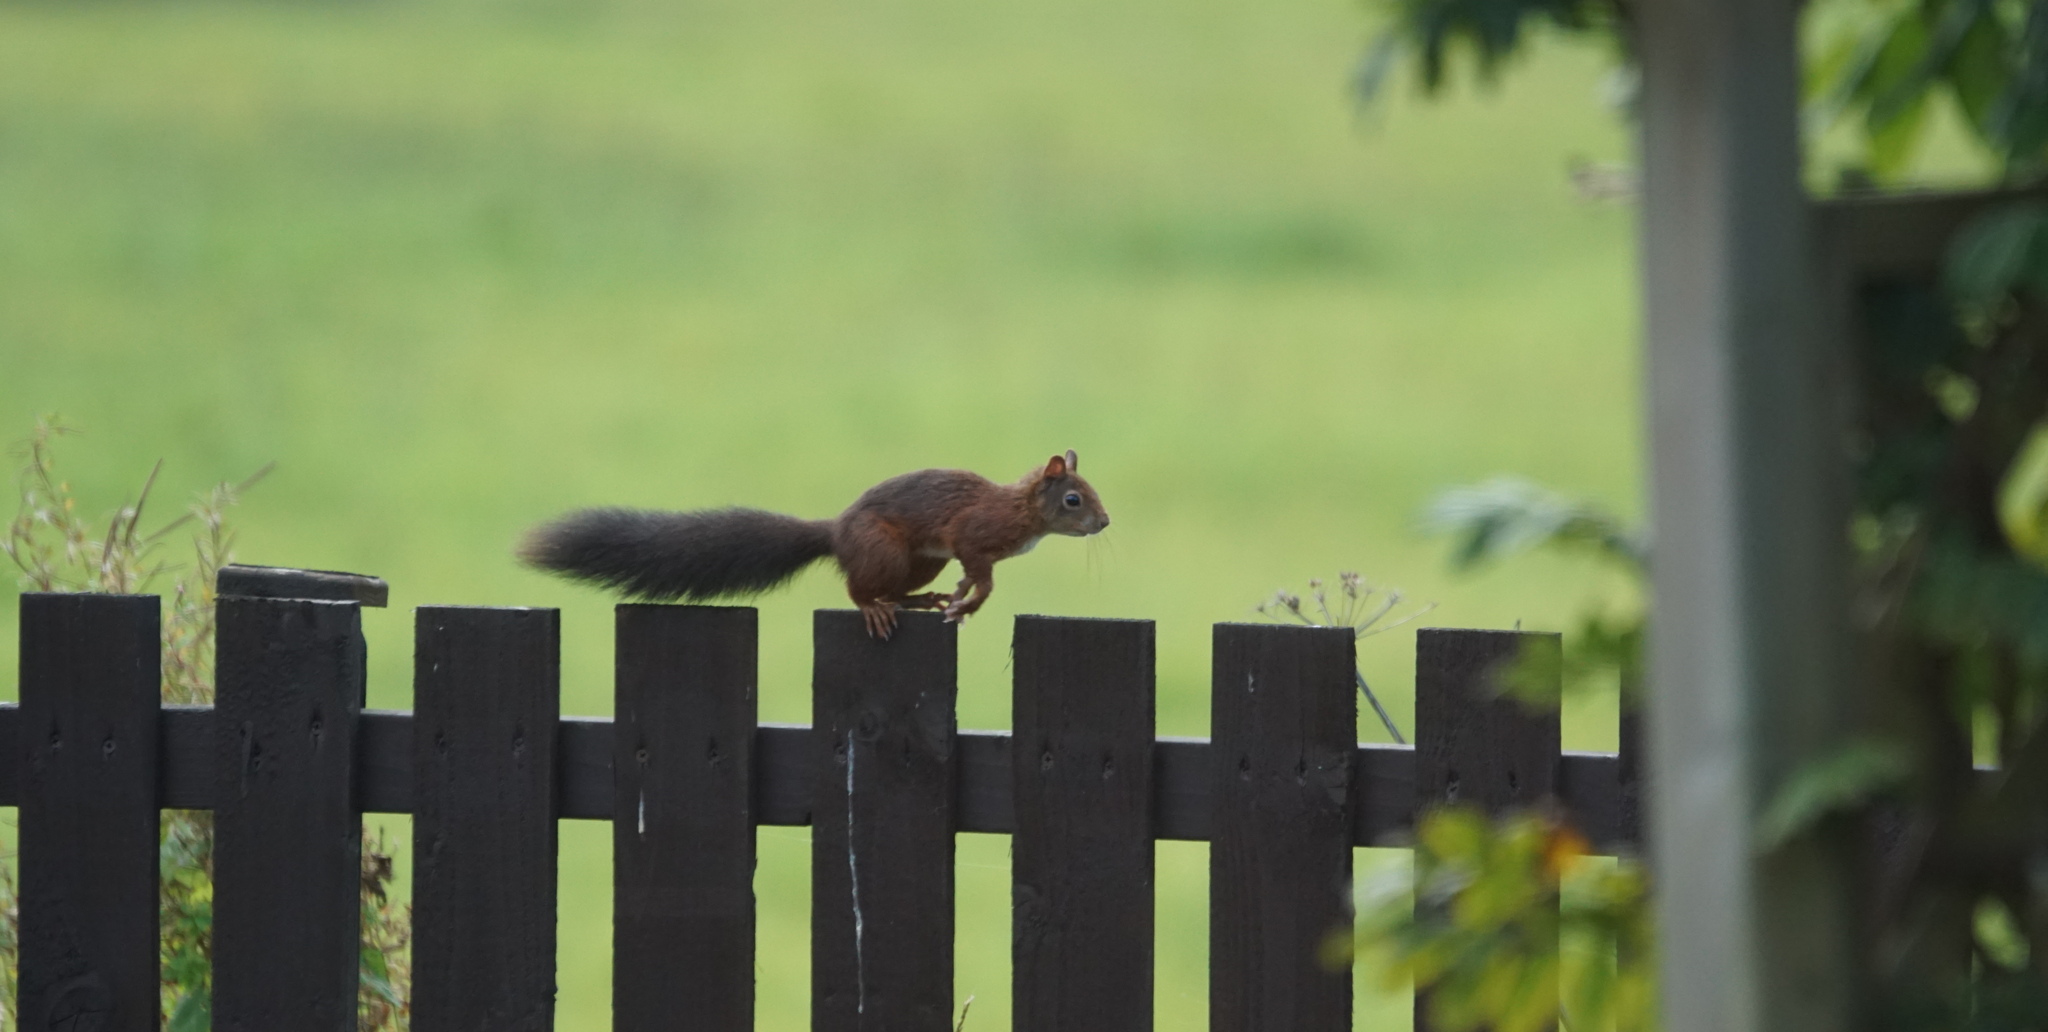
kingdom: Animalia
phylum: Chordata
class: Mammalia
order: Rodentia
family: Sciuridae
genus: Sciurus
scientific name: Sciurus vulgaris
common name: Eurasian red squirrel
